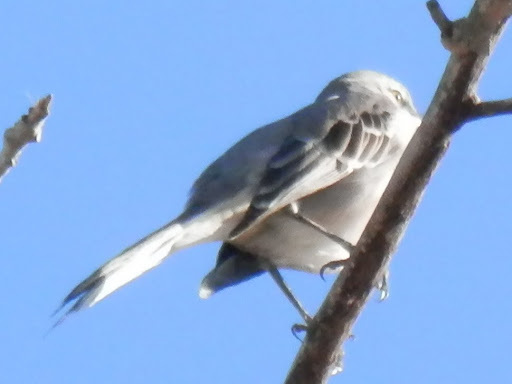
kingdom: Animalia
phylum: Chordata
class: Aves
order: Passeriformes
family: Mimidae
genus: Mimus
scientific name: Mimus polyglottos
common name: Northern mockingbird
